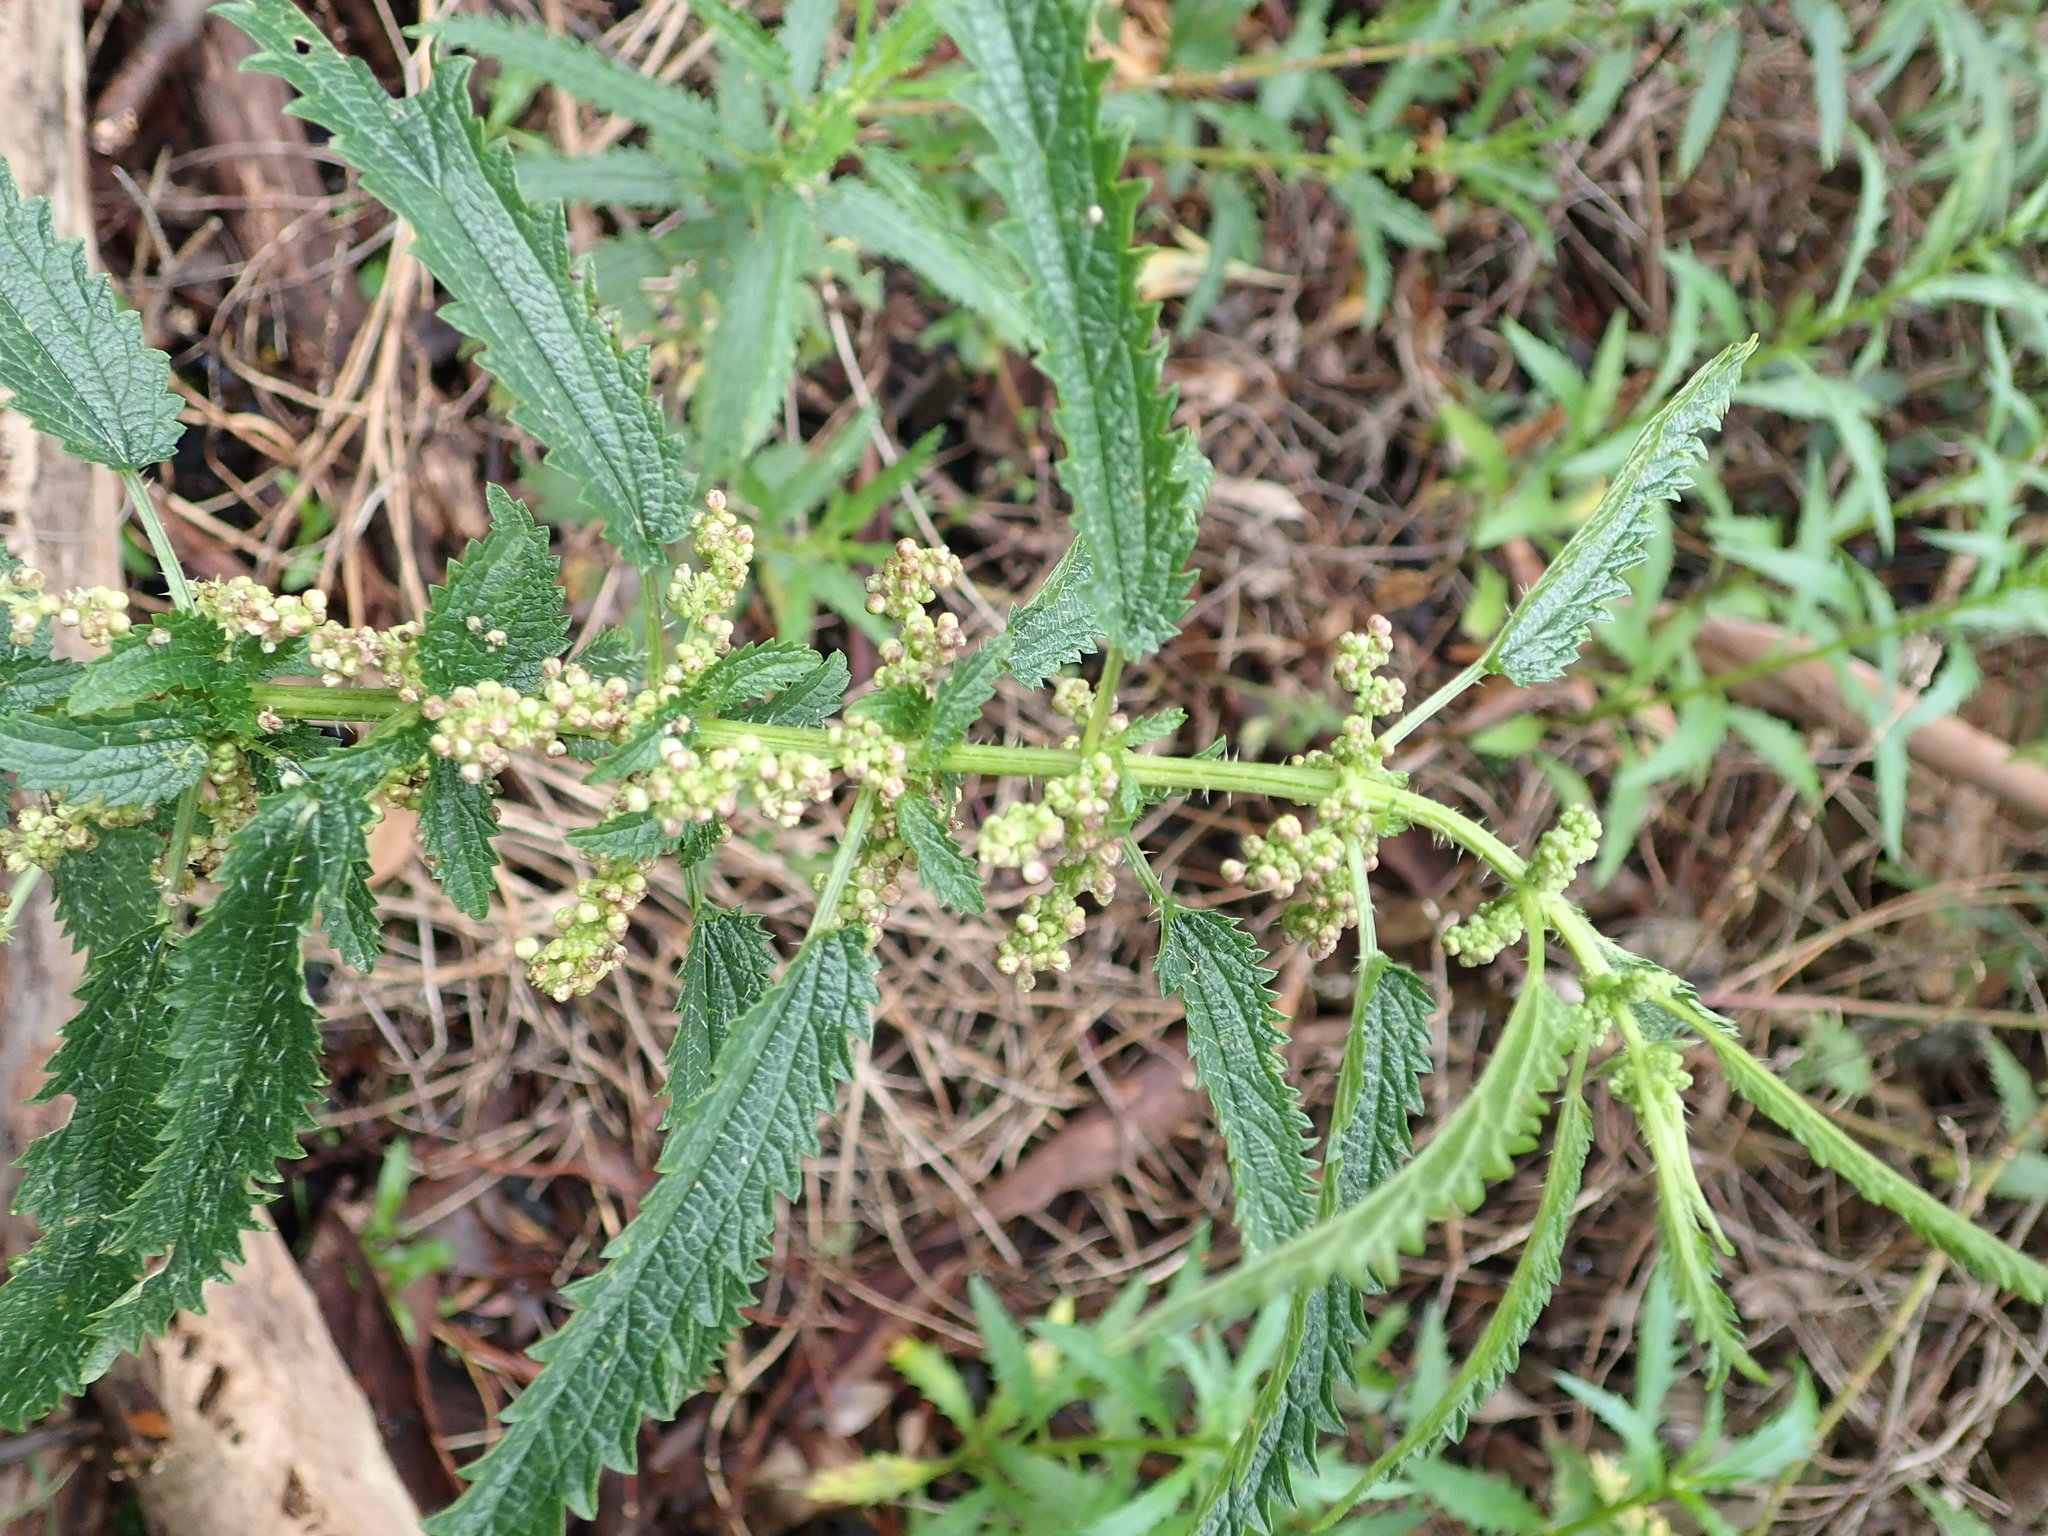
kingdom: Plantae
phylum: Tracheophyta
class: Magnoliopsida
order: Rosales
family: Urticaceae
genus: Urtica
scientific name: Urtica incisa
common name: Scrub nettle
